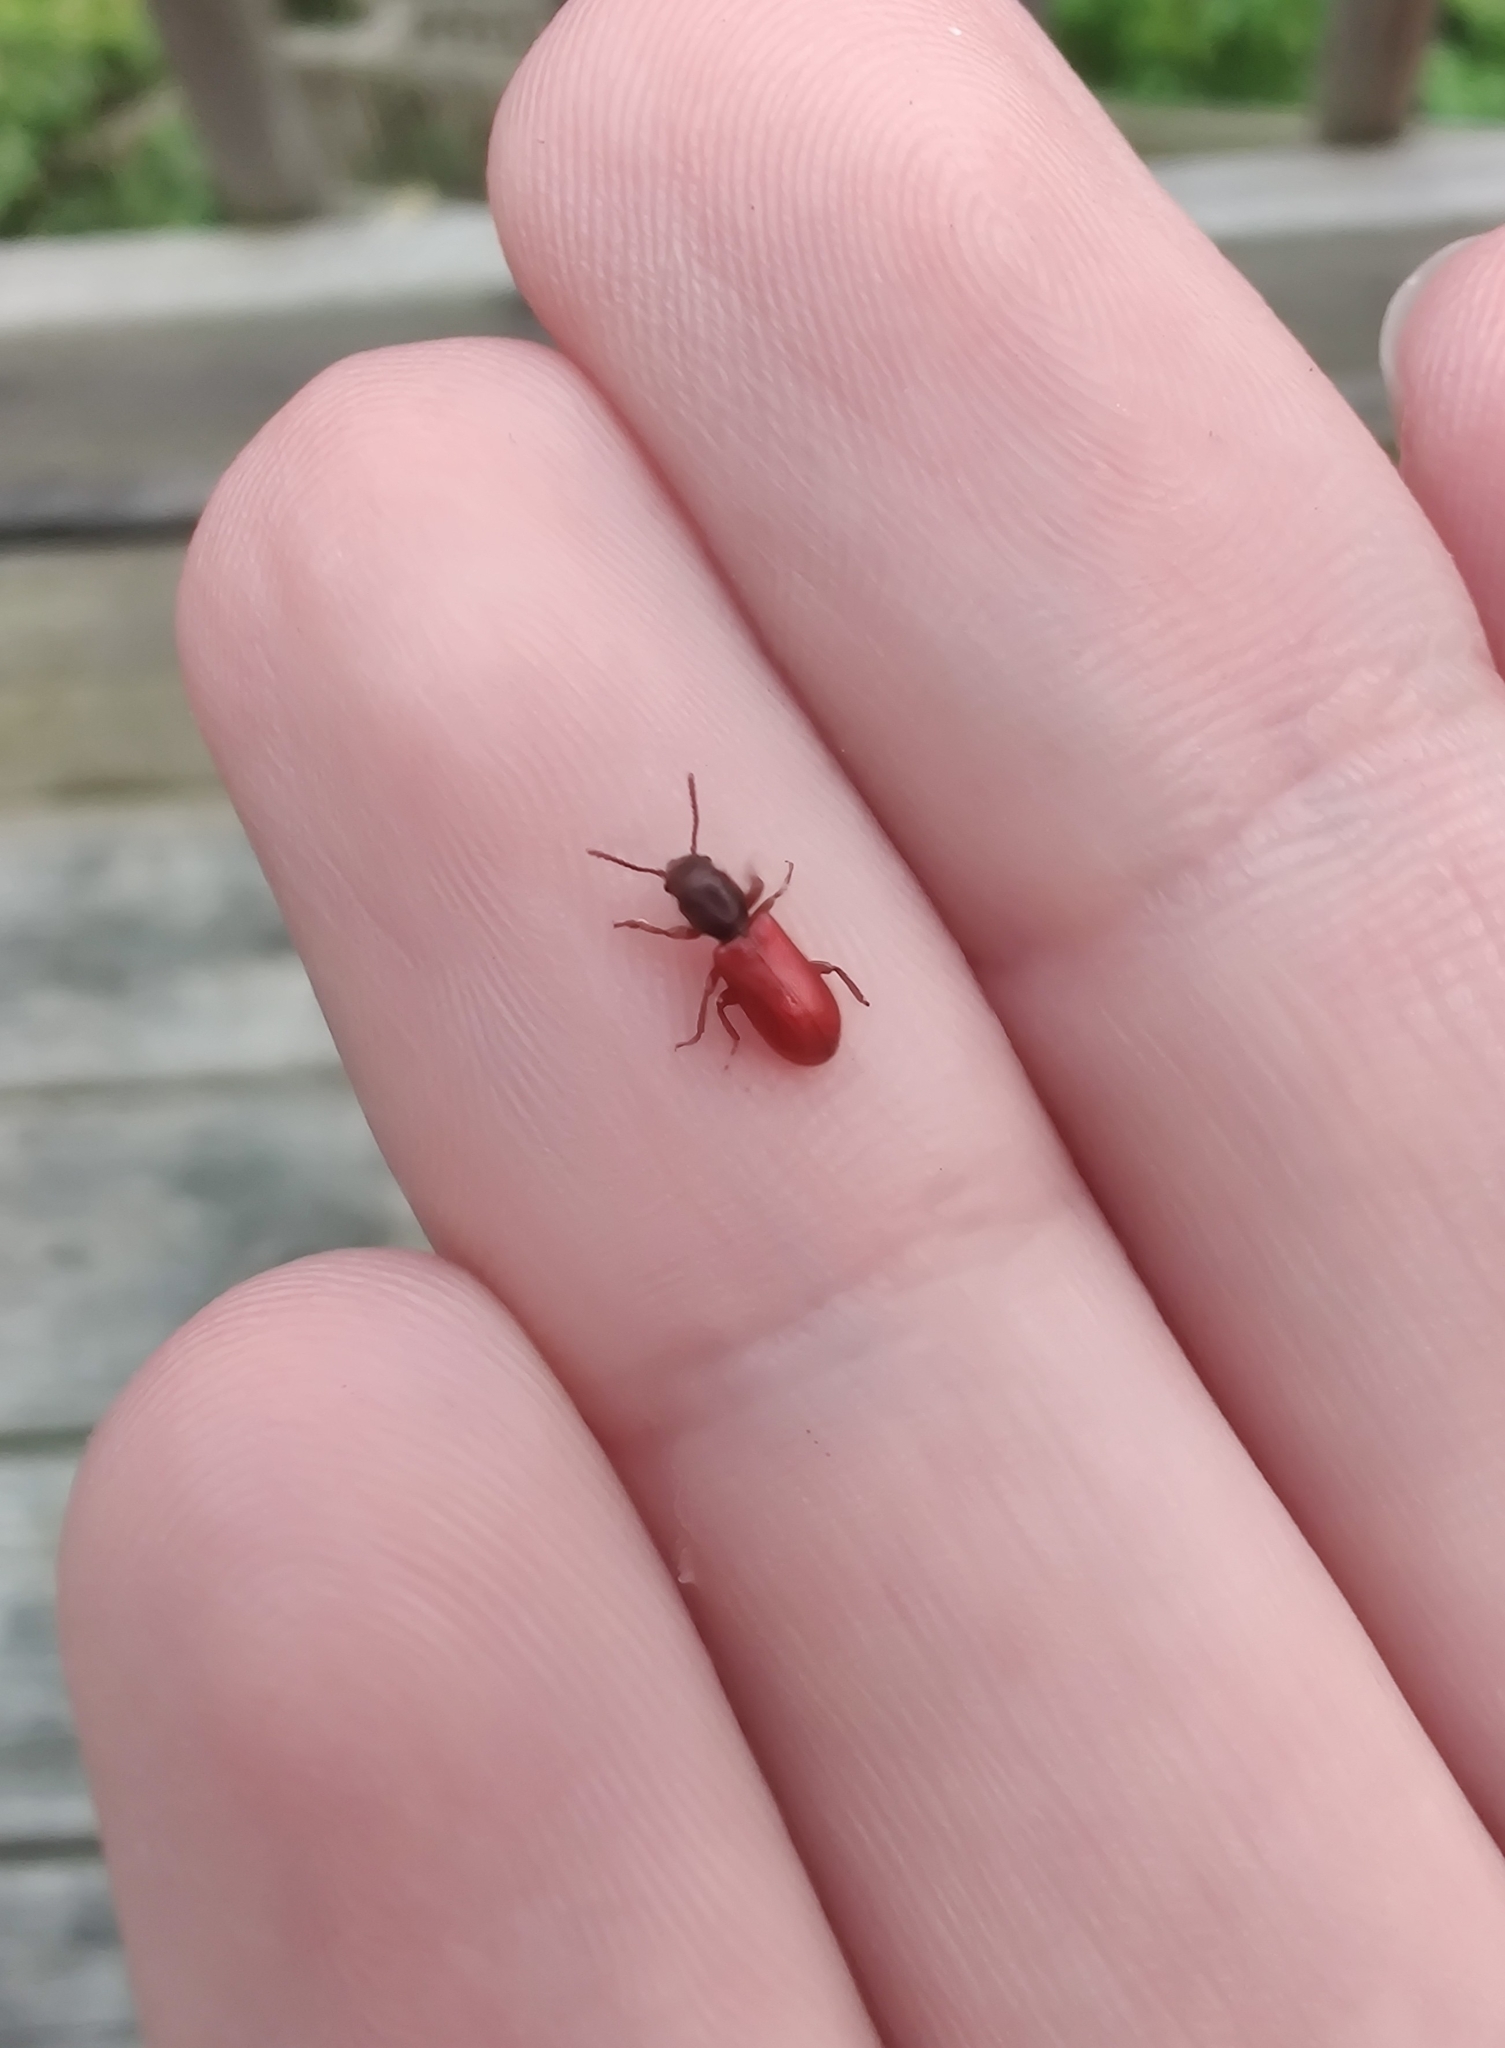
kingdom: Animalia
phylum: Arthropoda
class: Insecta
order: Coleoptera
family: Thanerocleridae
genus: Zenodosus
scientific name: Zenodosus sanguineus
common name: Blood-colored checkered beetle
